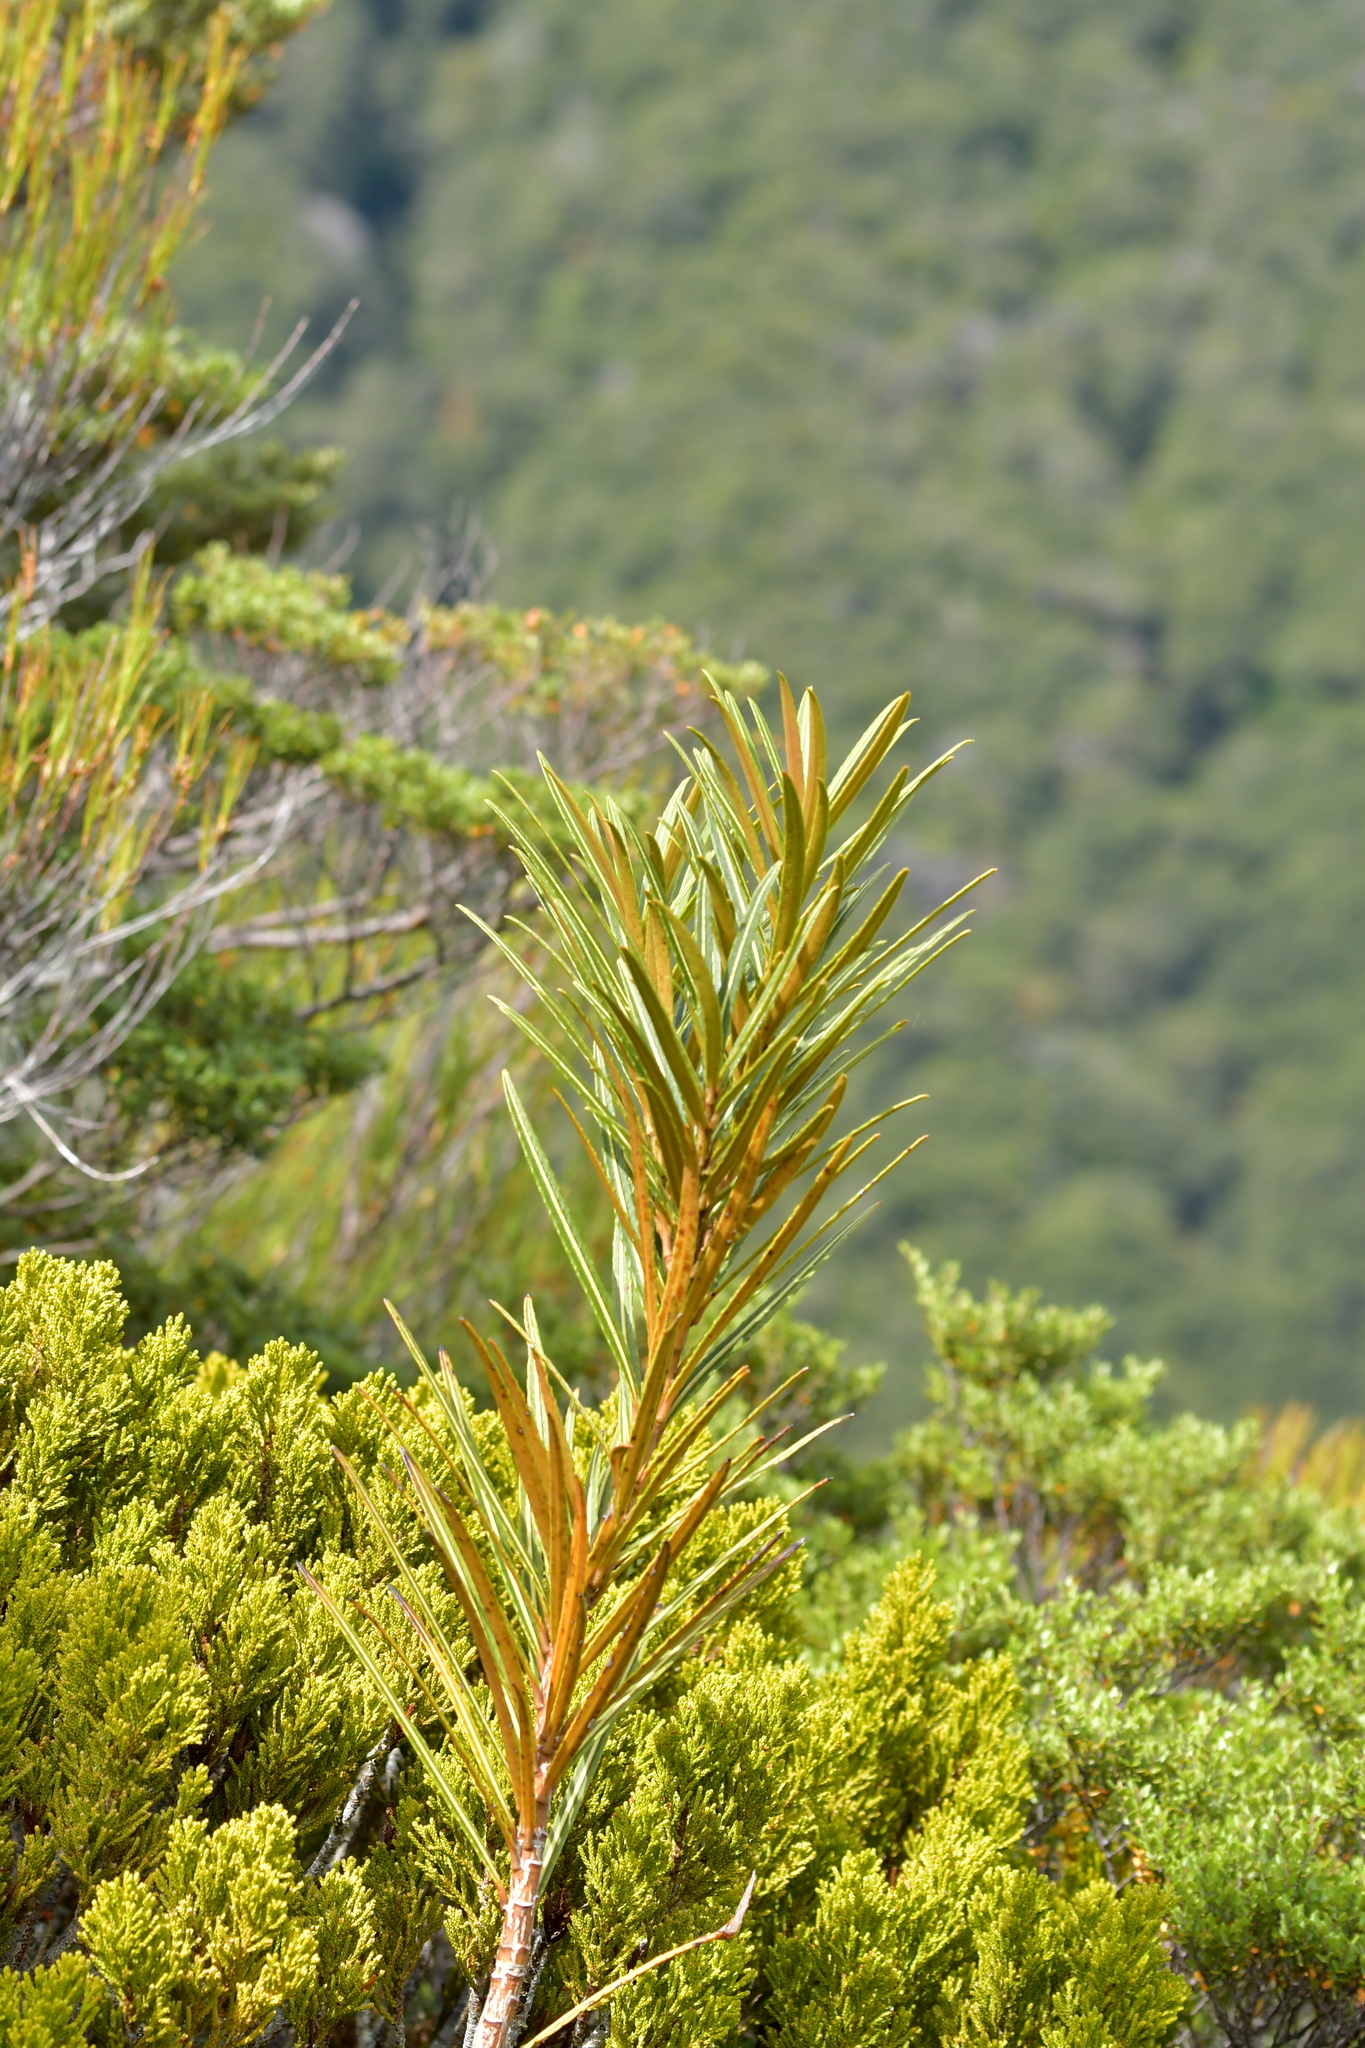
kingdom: Plantae
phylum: Tracheophyta
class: Magnoliopsida
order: Apiales
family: Araliaceae
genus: Pseudopanax
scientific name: Pseudopanax linearis
